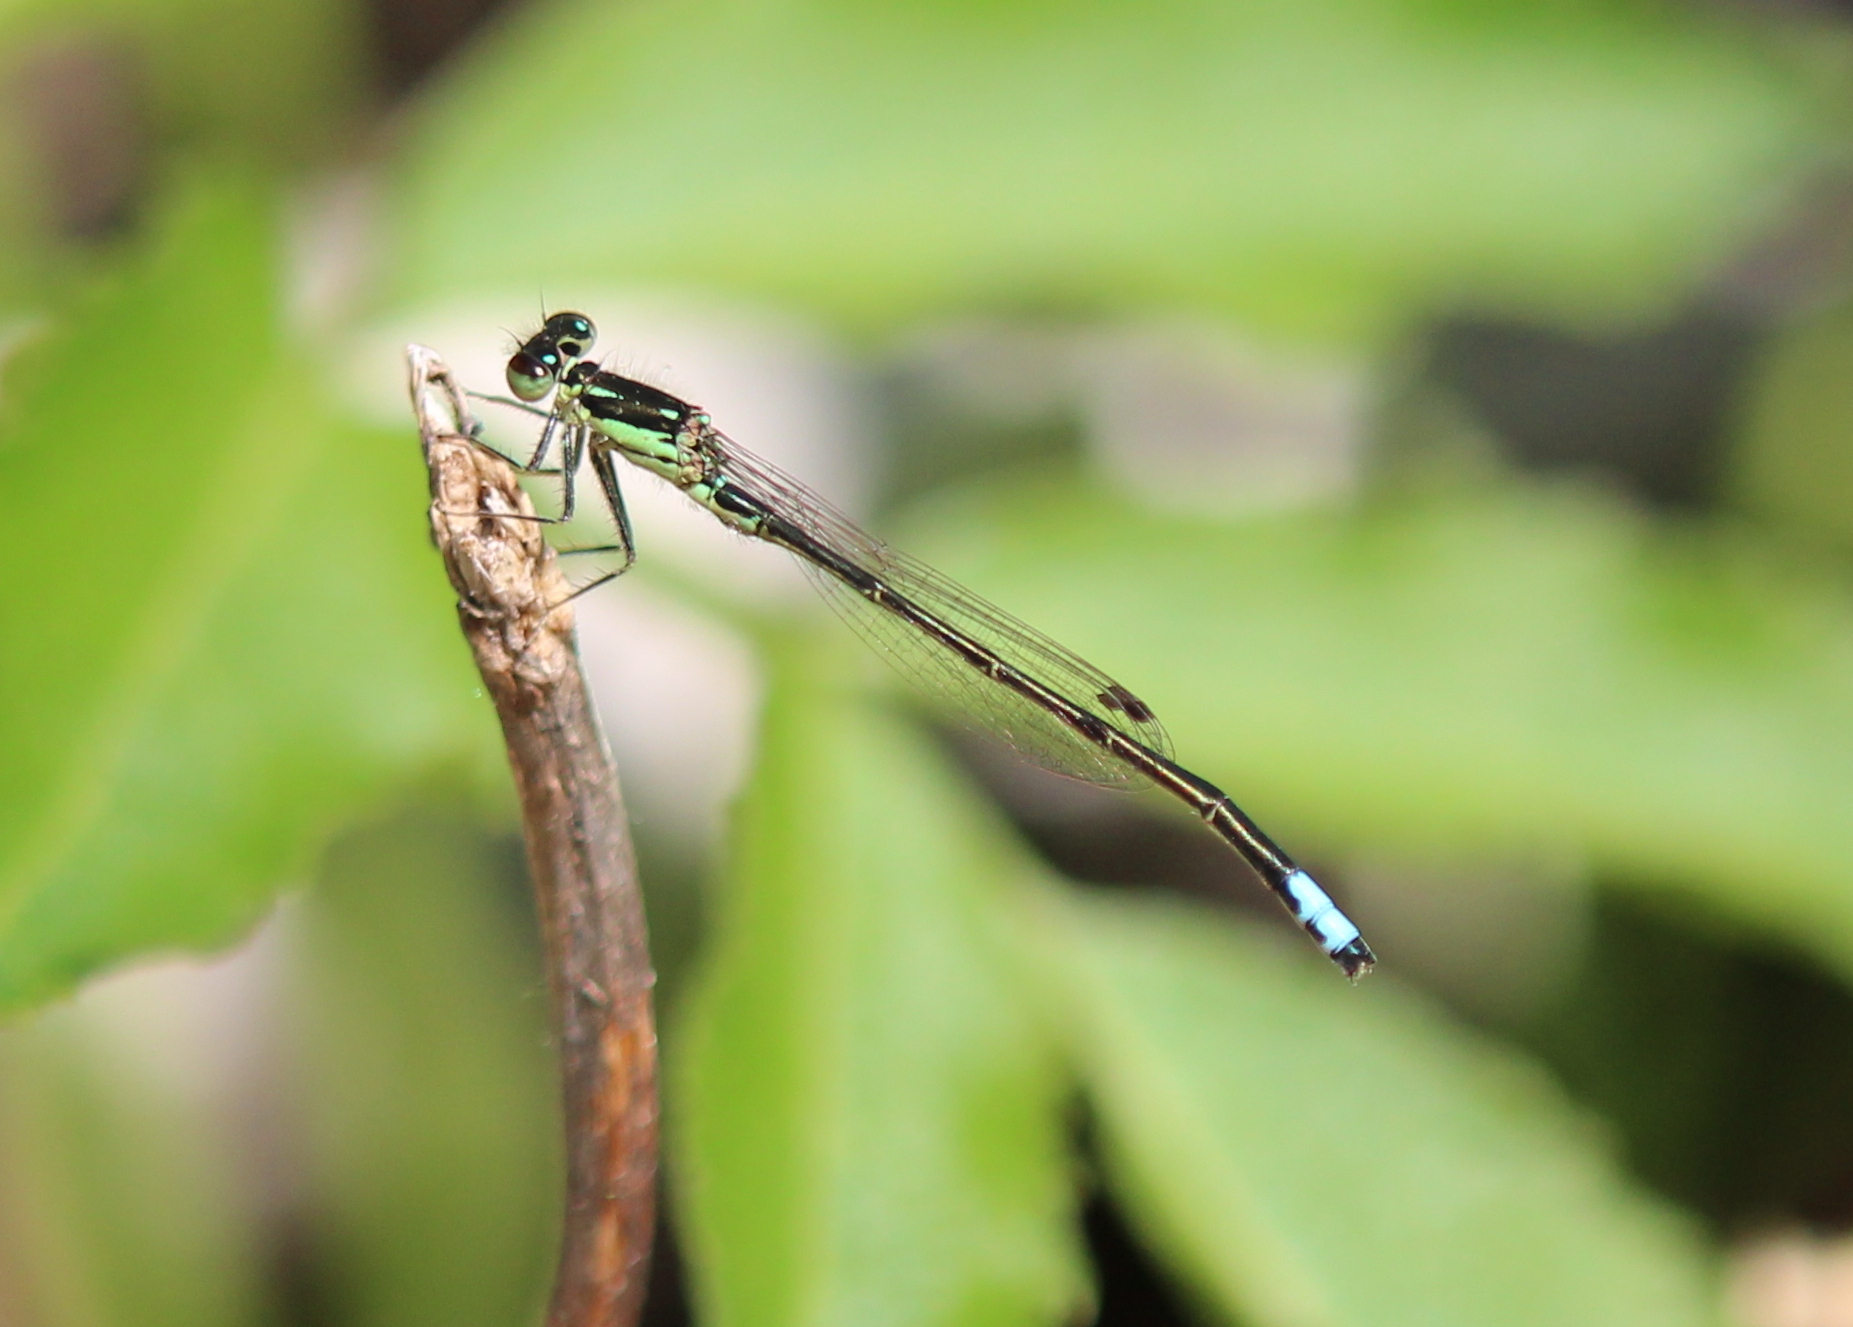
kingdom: Animalia
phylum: Arthropoda
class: Insecta
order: Odonata
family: Coenagrionidae
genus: Ischnura
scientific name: Ischnura verticalis
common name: Eastern forktail
